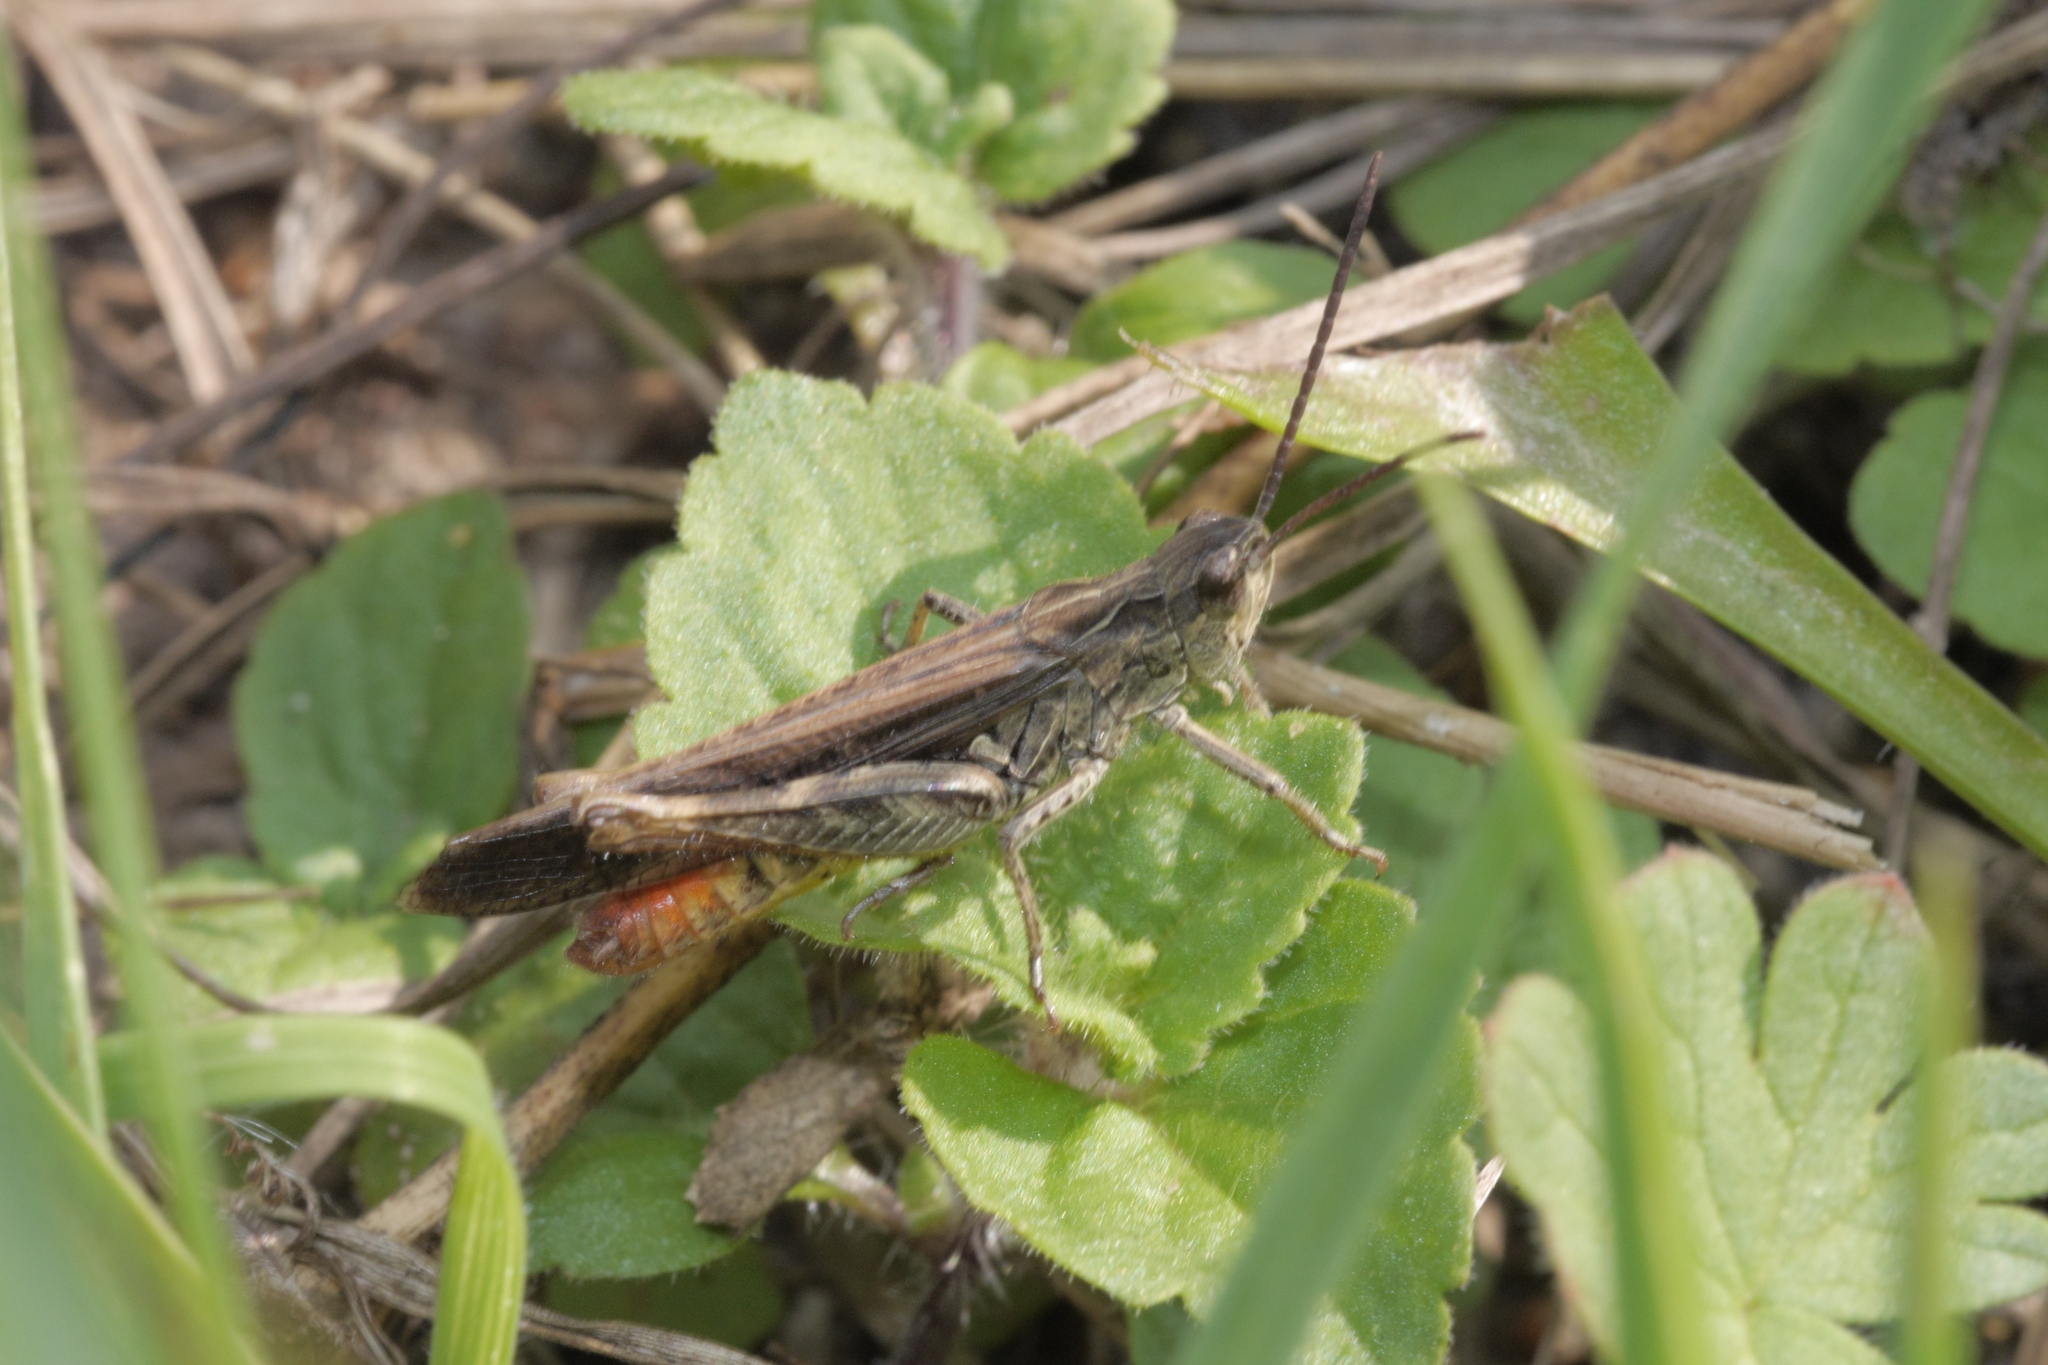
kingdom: Animalia
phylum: Arthropoda
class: Insecta
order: Orthoptera
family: Acrididae
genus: Chorthippus
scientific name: Chorthippus brunneus
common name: Field grasshopper
